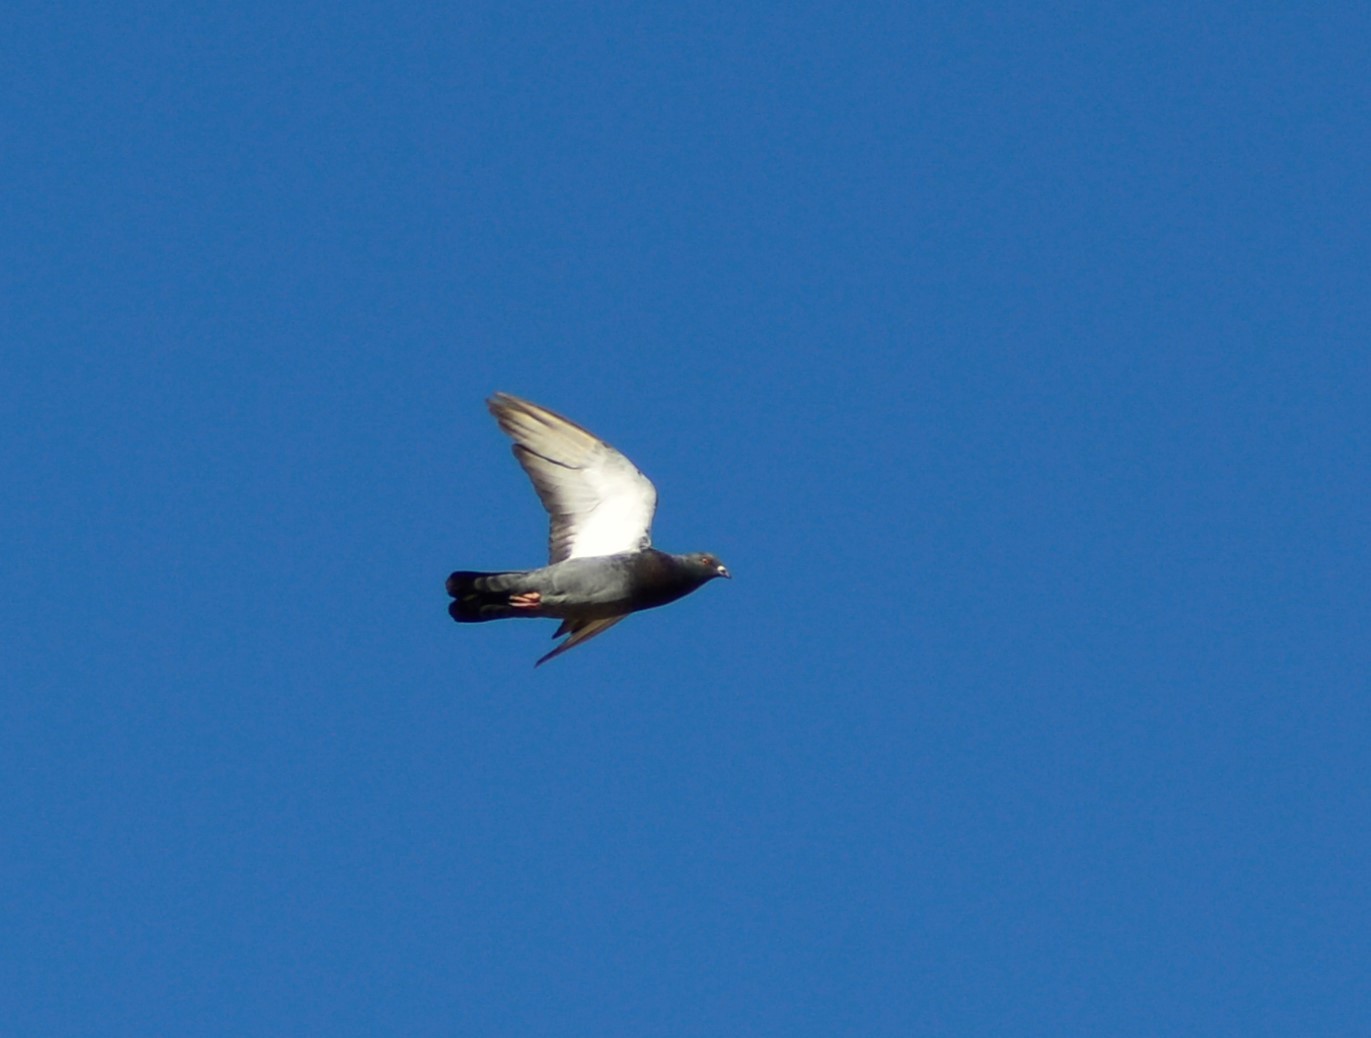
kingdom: Animalia
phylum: Chordata
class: Aves
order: Columbiformes
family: Columbidae
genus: Columba
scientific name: Columba livia
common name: Rock pigeon
